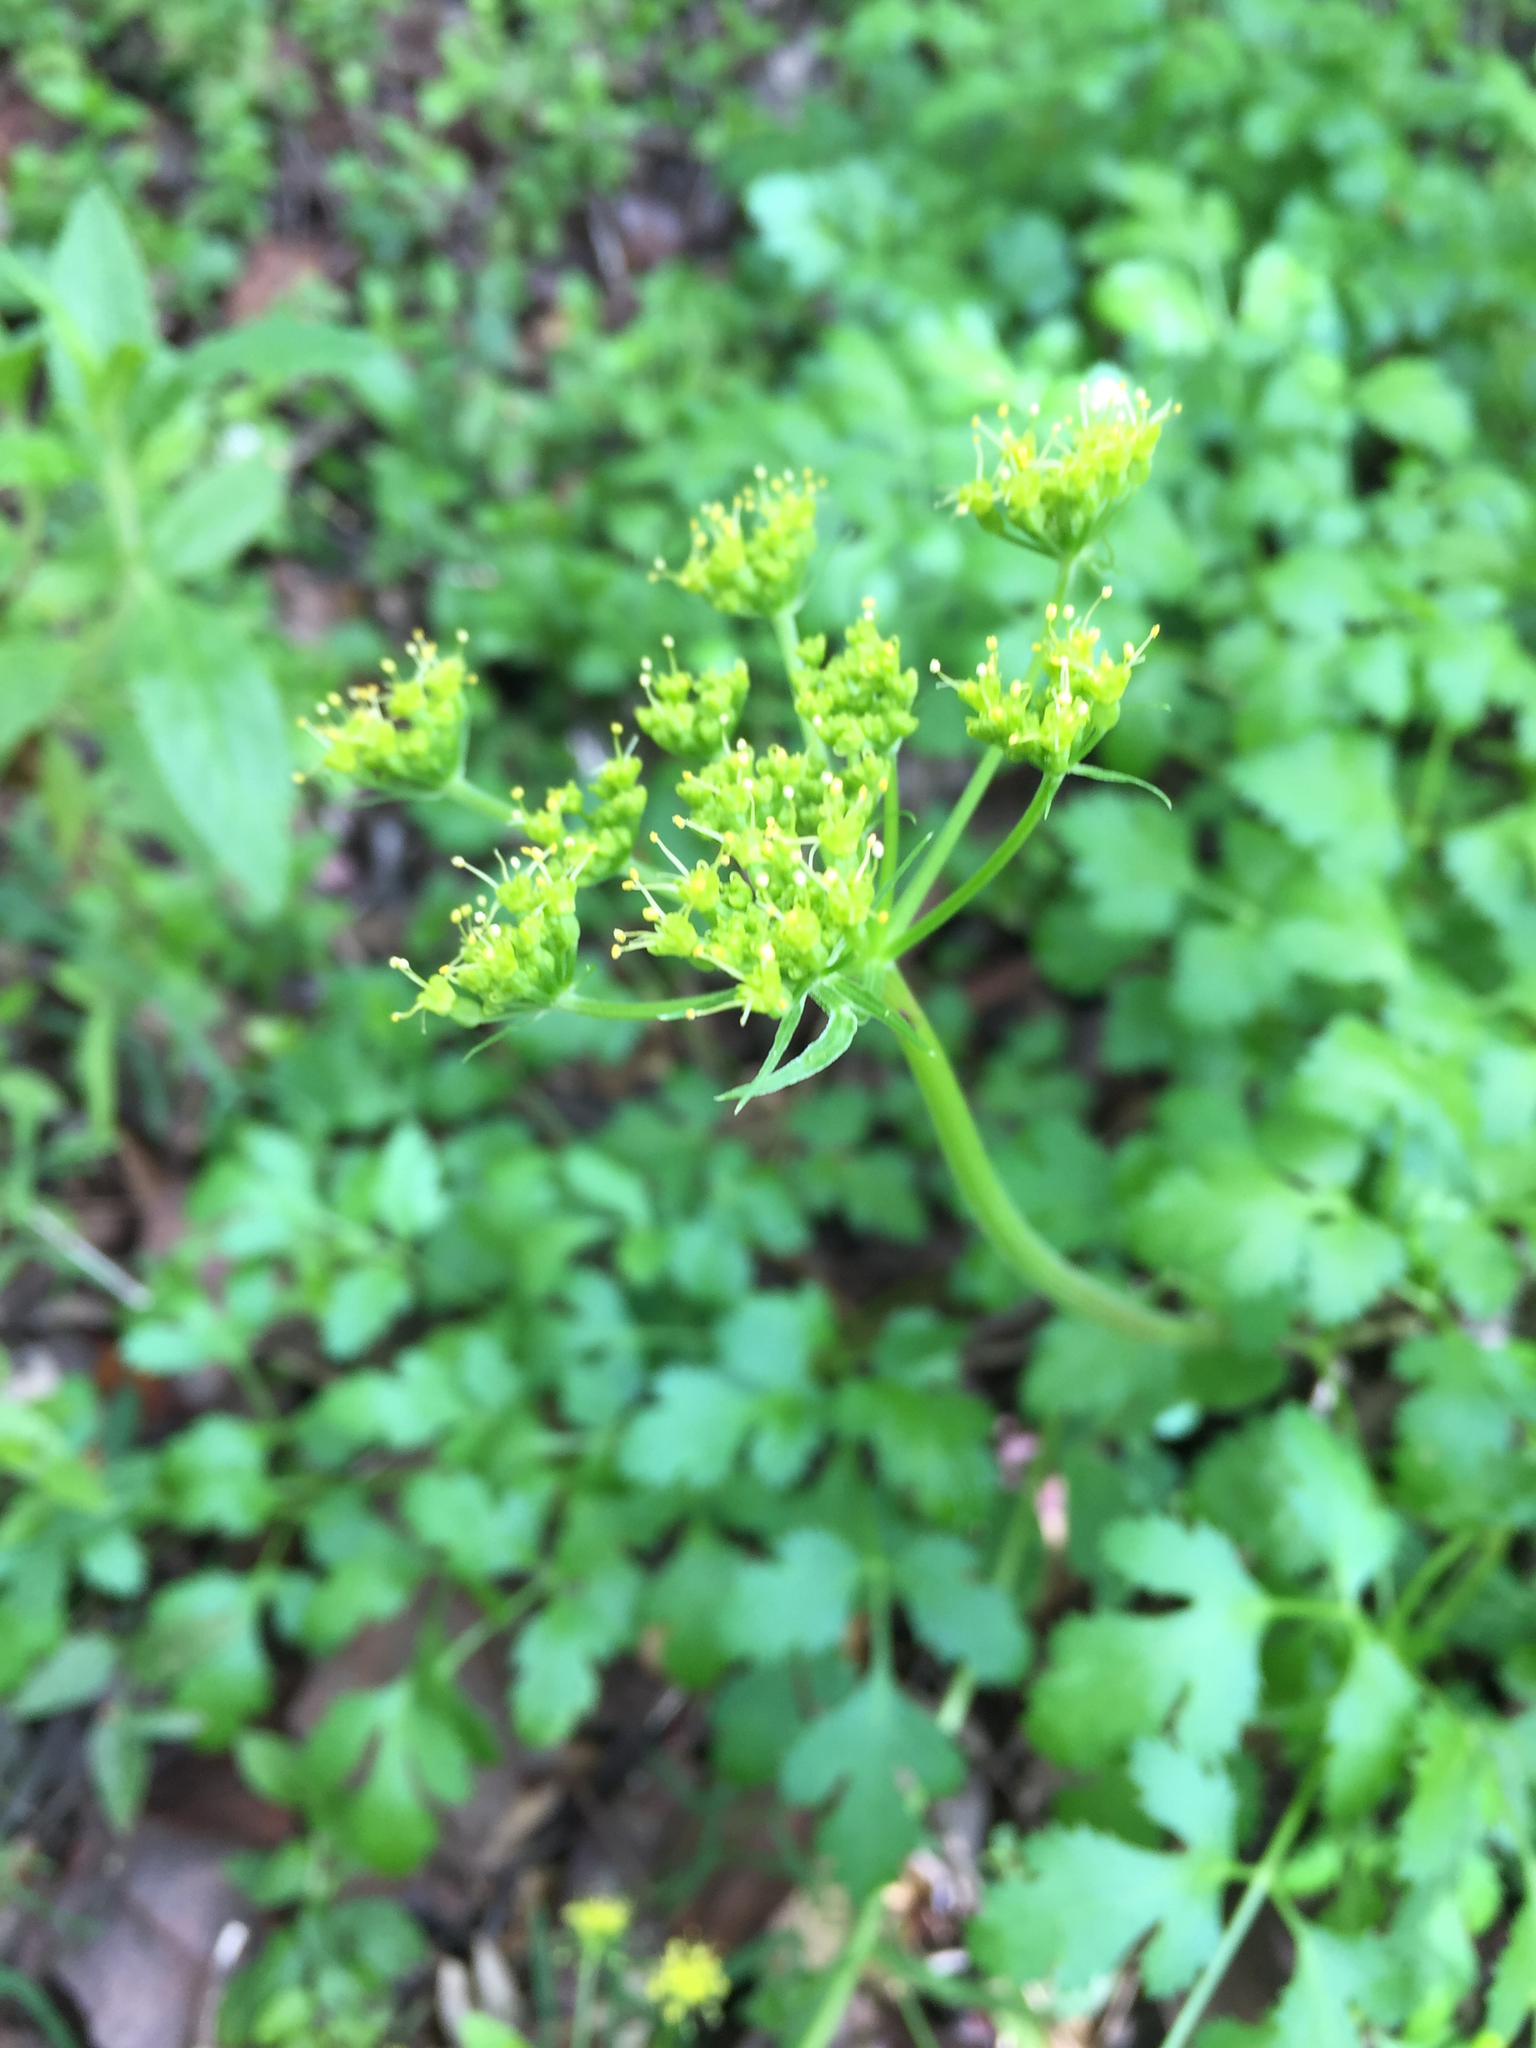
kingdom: Plantae
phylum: Tracheophyta
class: Magnoliopsida
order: Apiales
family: Apiaceae
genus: Tauschia
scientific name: Tauschia kelloggii
